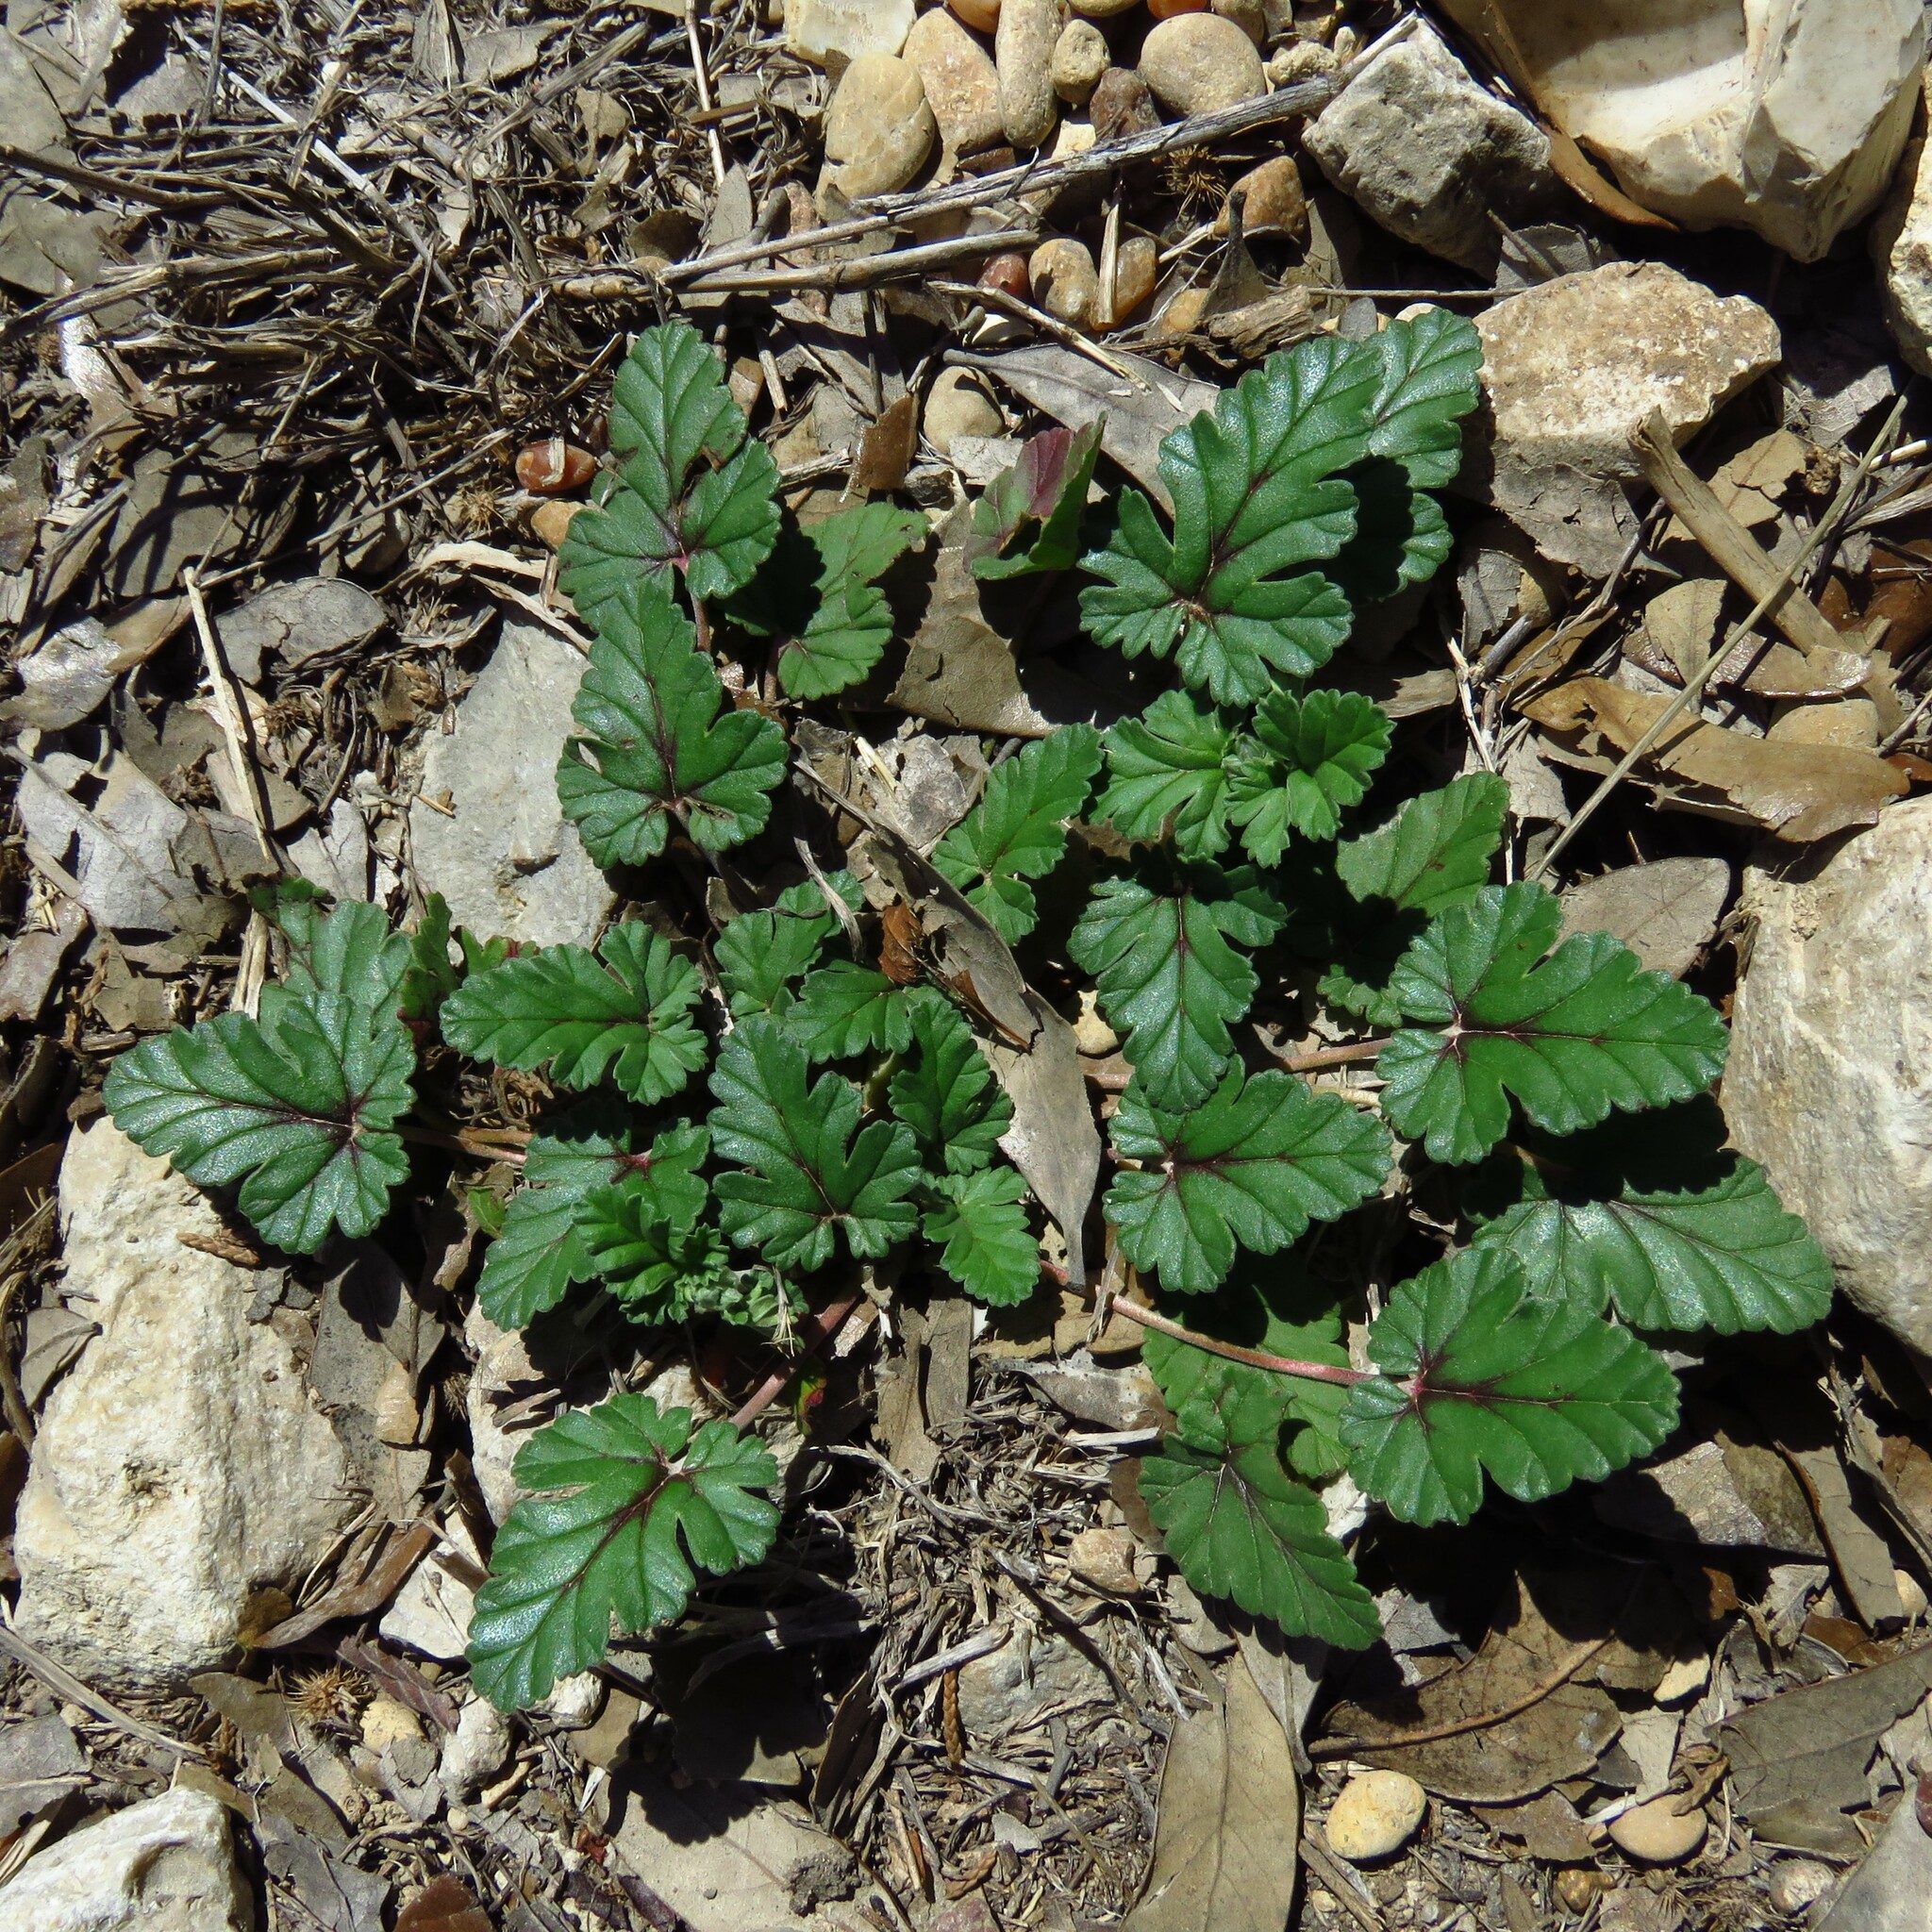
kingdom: Plantae
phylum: Tracheophyta
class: Magnoliopsida
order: Geraniales
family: Geraniaceae
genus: Erodium
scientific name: Erodium texanum
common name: Texas stork's-bill
